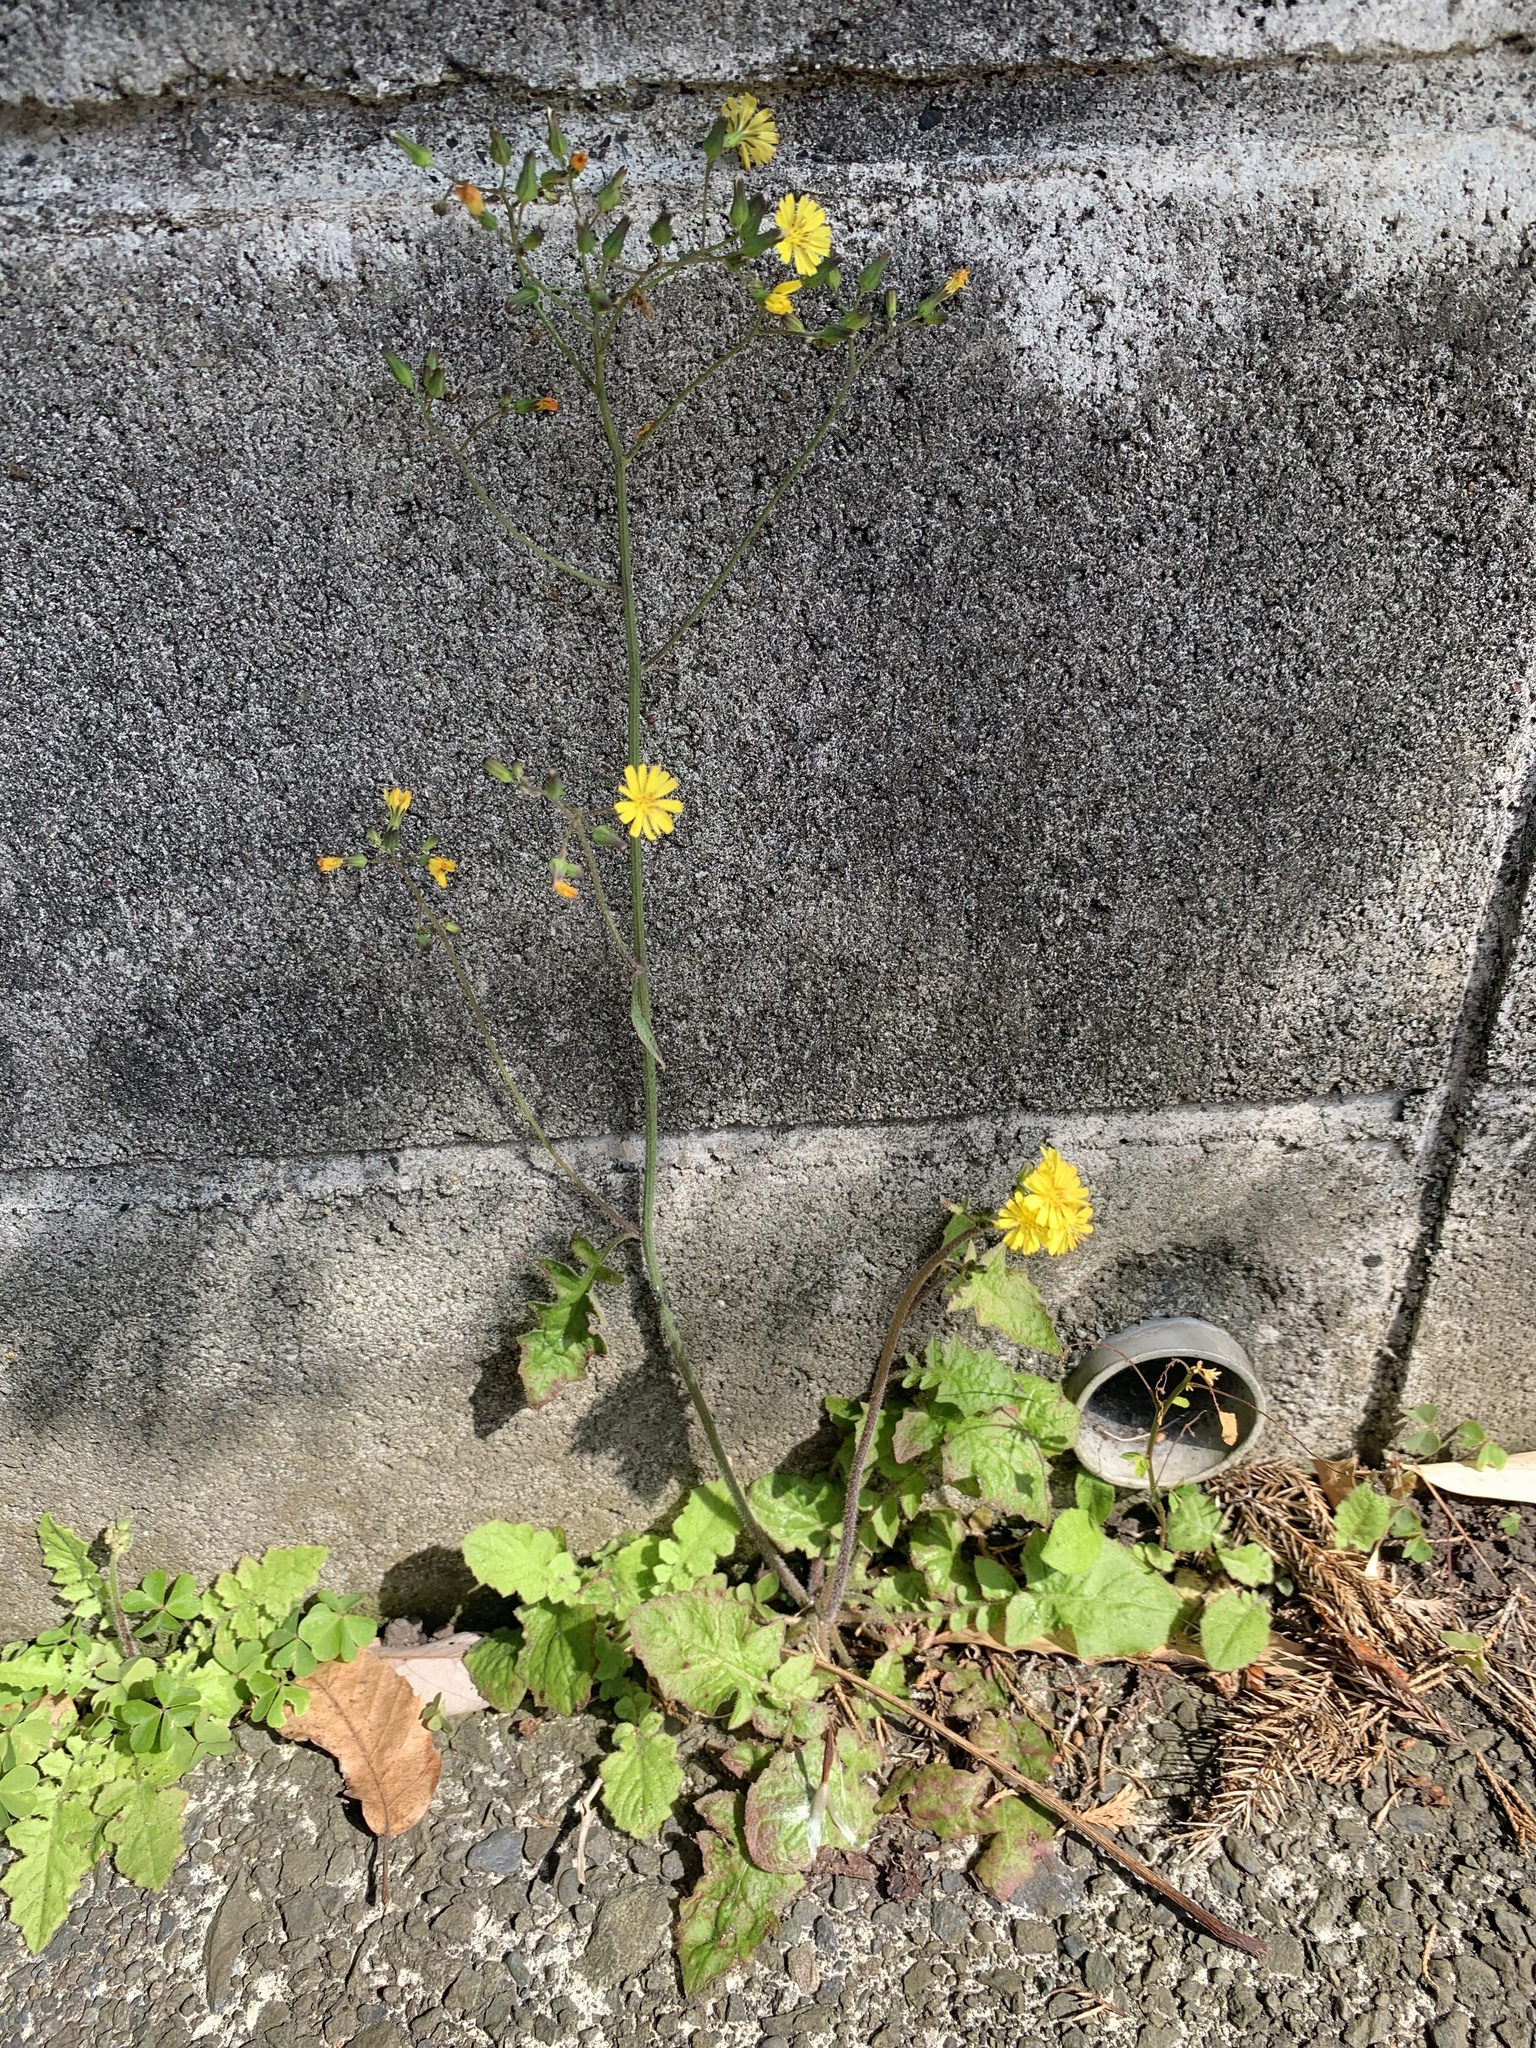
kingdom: Plantae
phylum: Tracheophyta
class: Magnoliopsida
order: Asterales
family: Asteraceae
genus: Youngia
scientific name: Youngia japonica
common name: Oriental false hawksbeard
